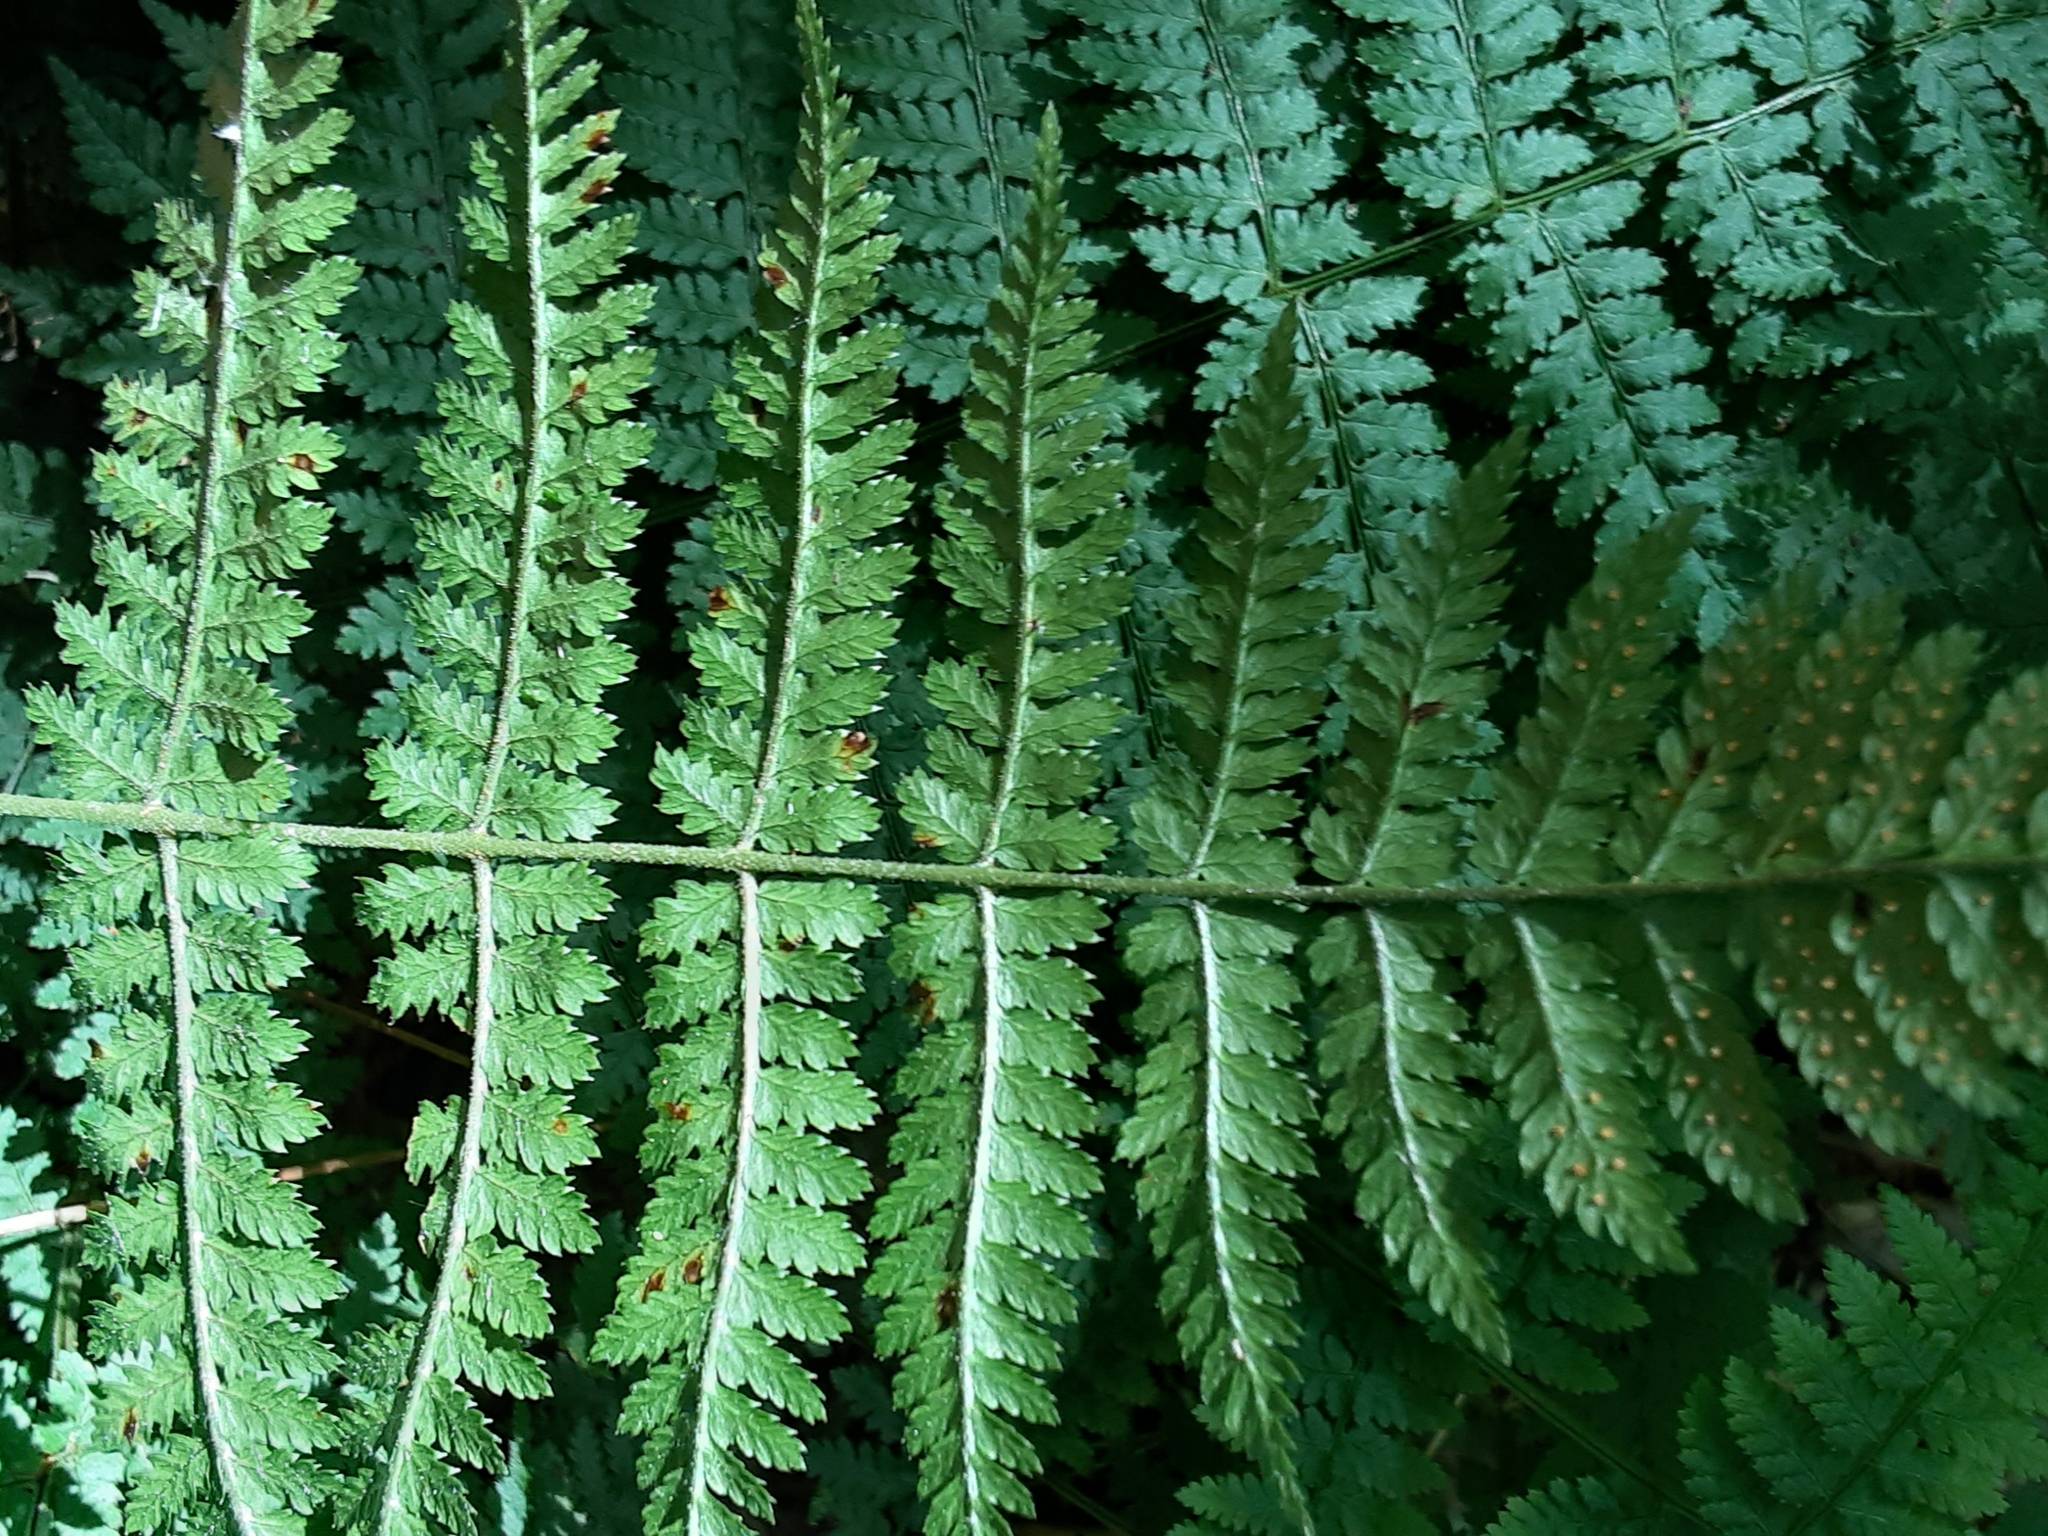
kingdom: Plantae
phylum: Tracheophyta
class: Polypodiopsida
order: Polypodiales
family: Dryopteridaceae
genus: Dryopteris
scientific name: Dryopteris intermedia
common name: Evergreen wood fern
